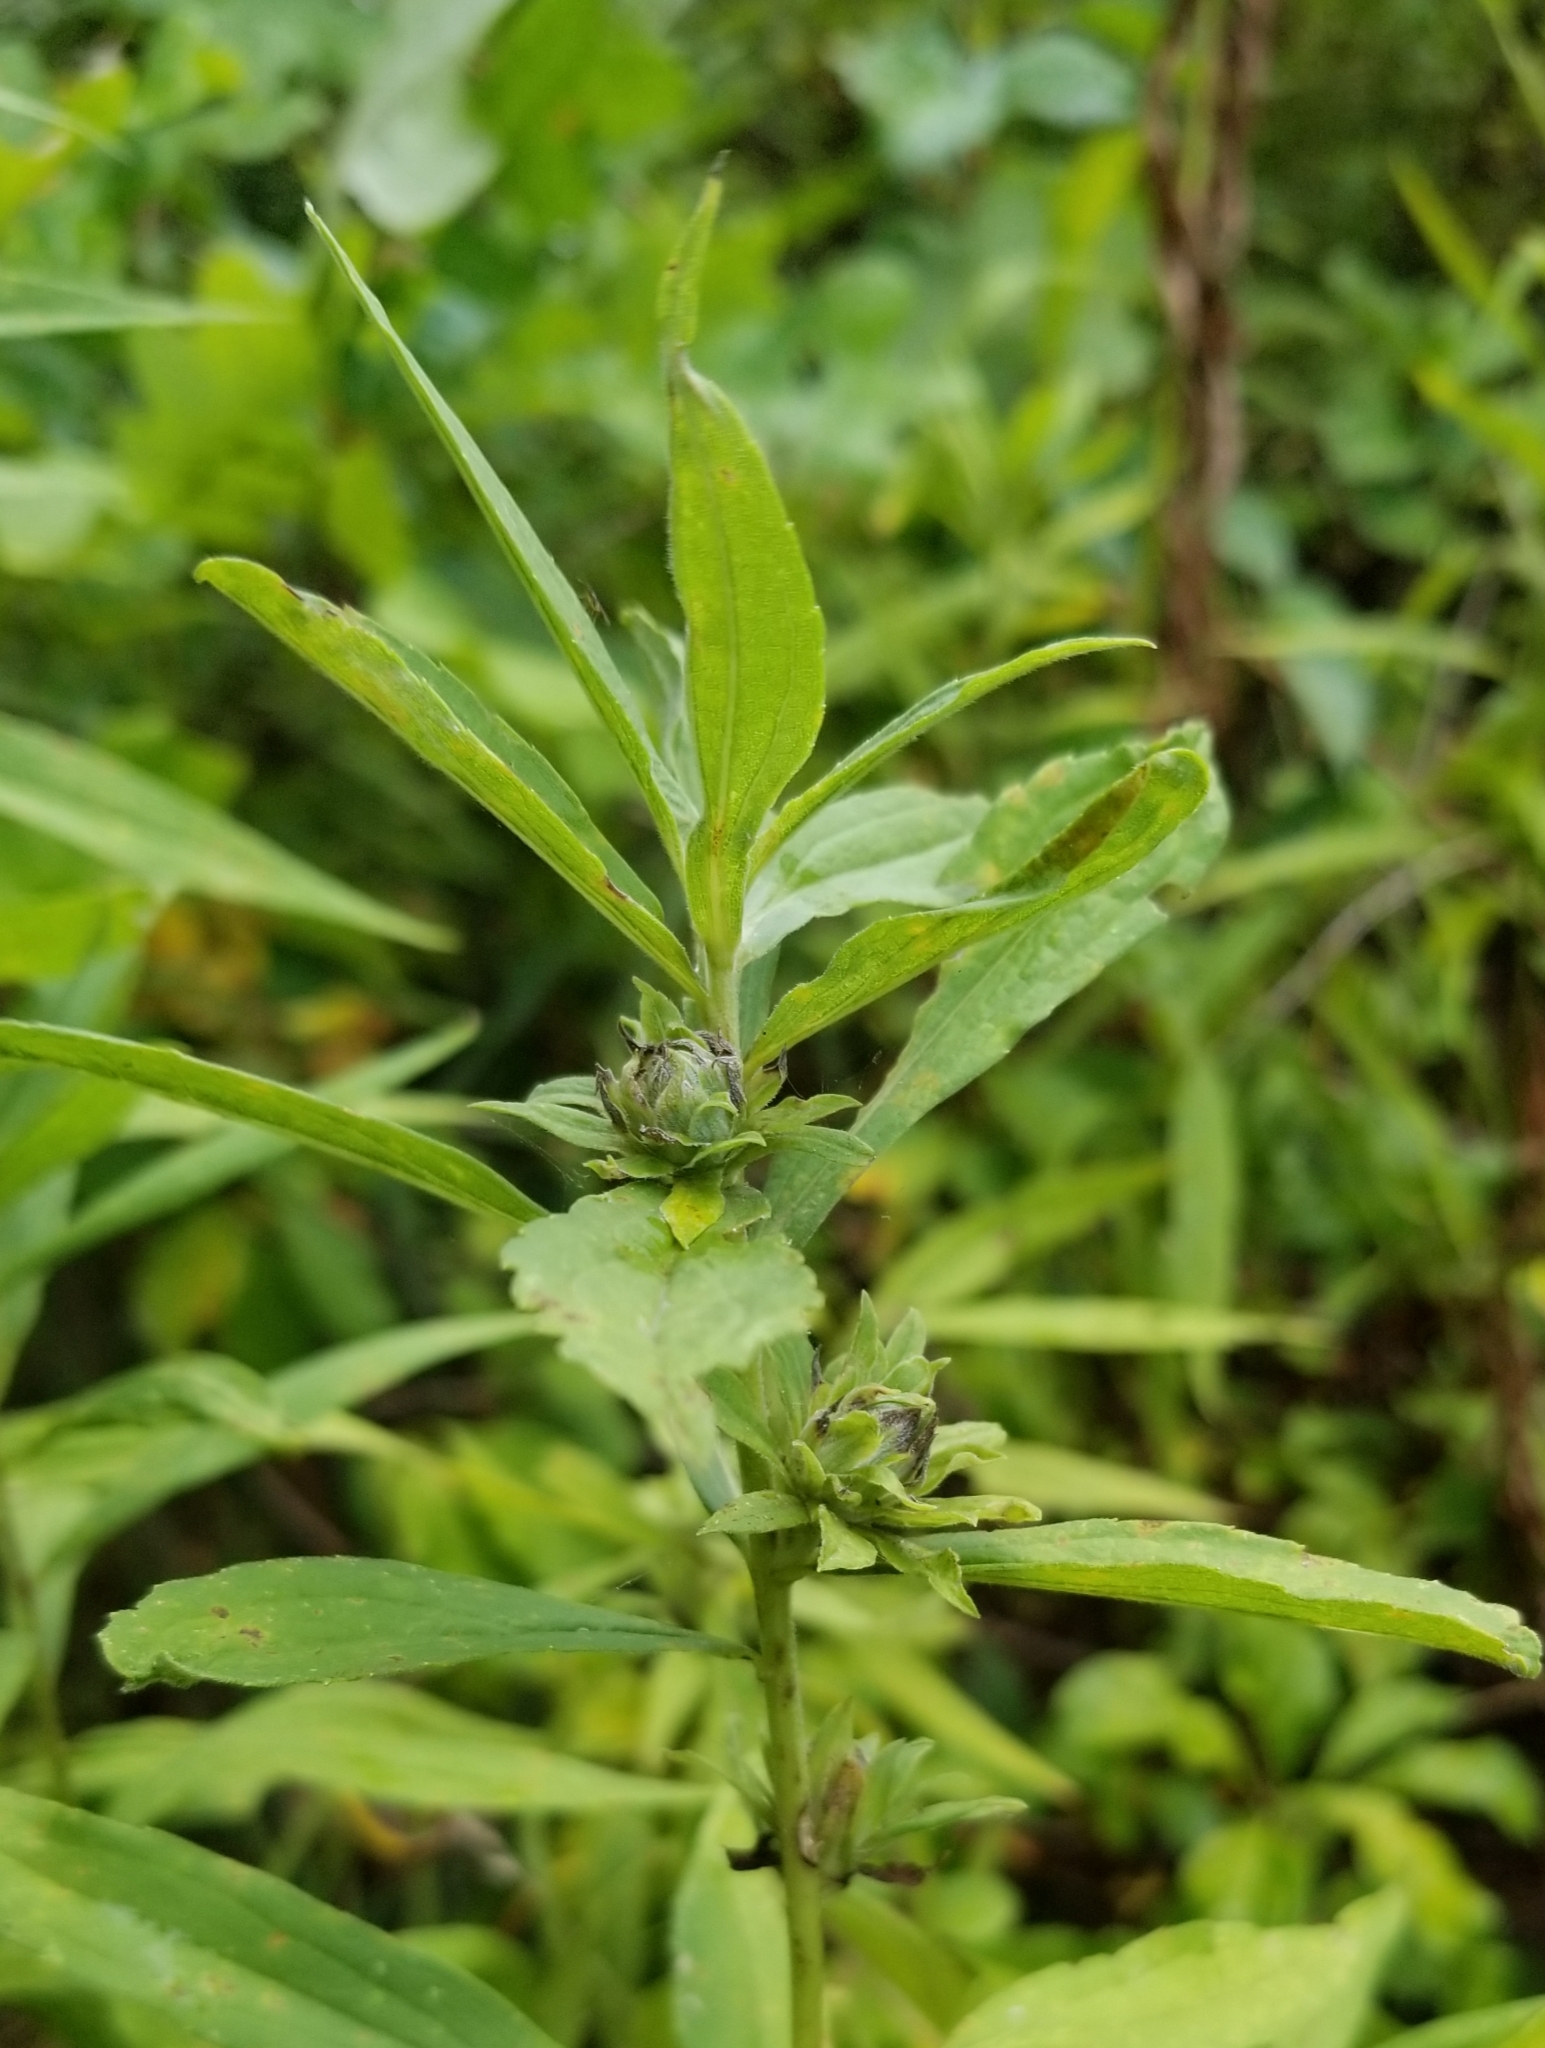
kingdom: Animalia
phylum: Arthropoda
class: Insecta
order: Diptera
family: Tephritidae
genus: Procecidochares
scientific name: Procecidochares atra
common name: Goldenrod brussels sprout gall fly
